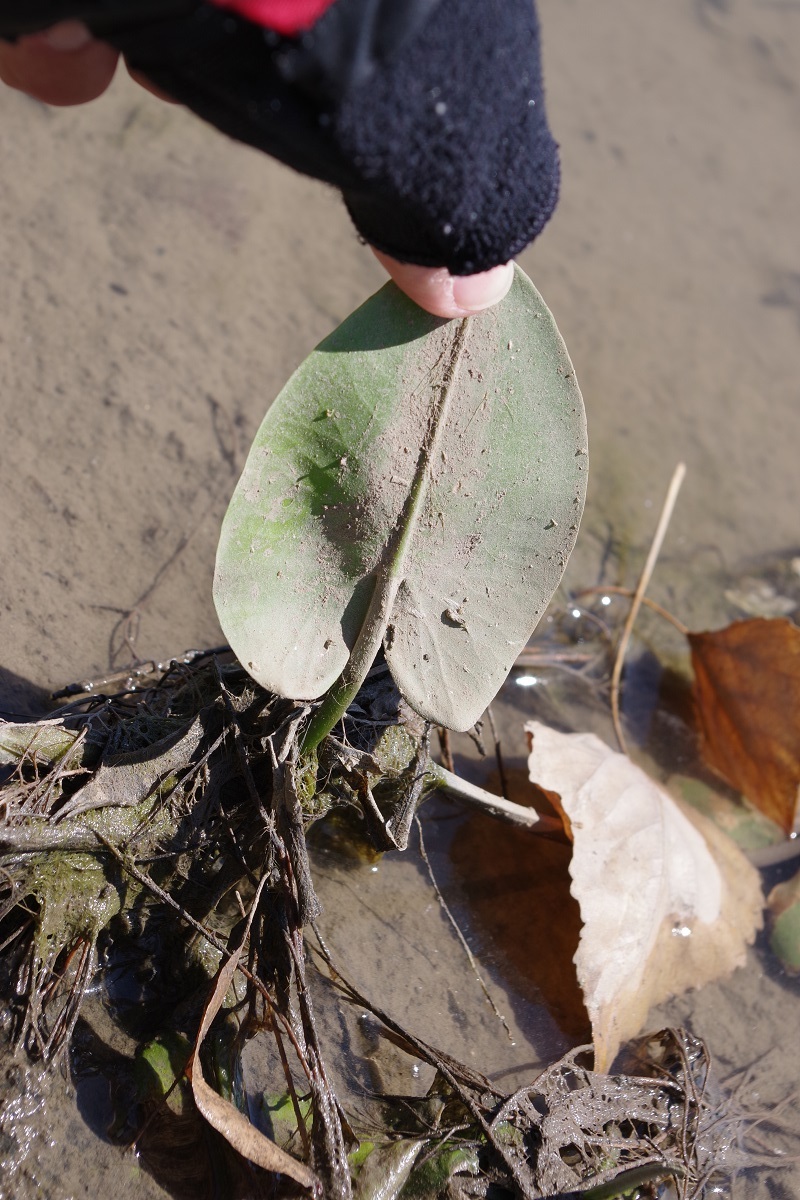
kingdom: Plantae
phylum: Tracheophyta
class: Magnoliopsida
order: Nymphaeales
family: Nymphaeaceae
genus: Nuphar
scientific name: Nuphar lutea
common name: Yellow water-lily
